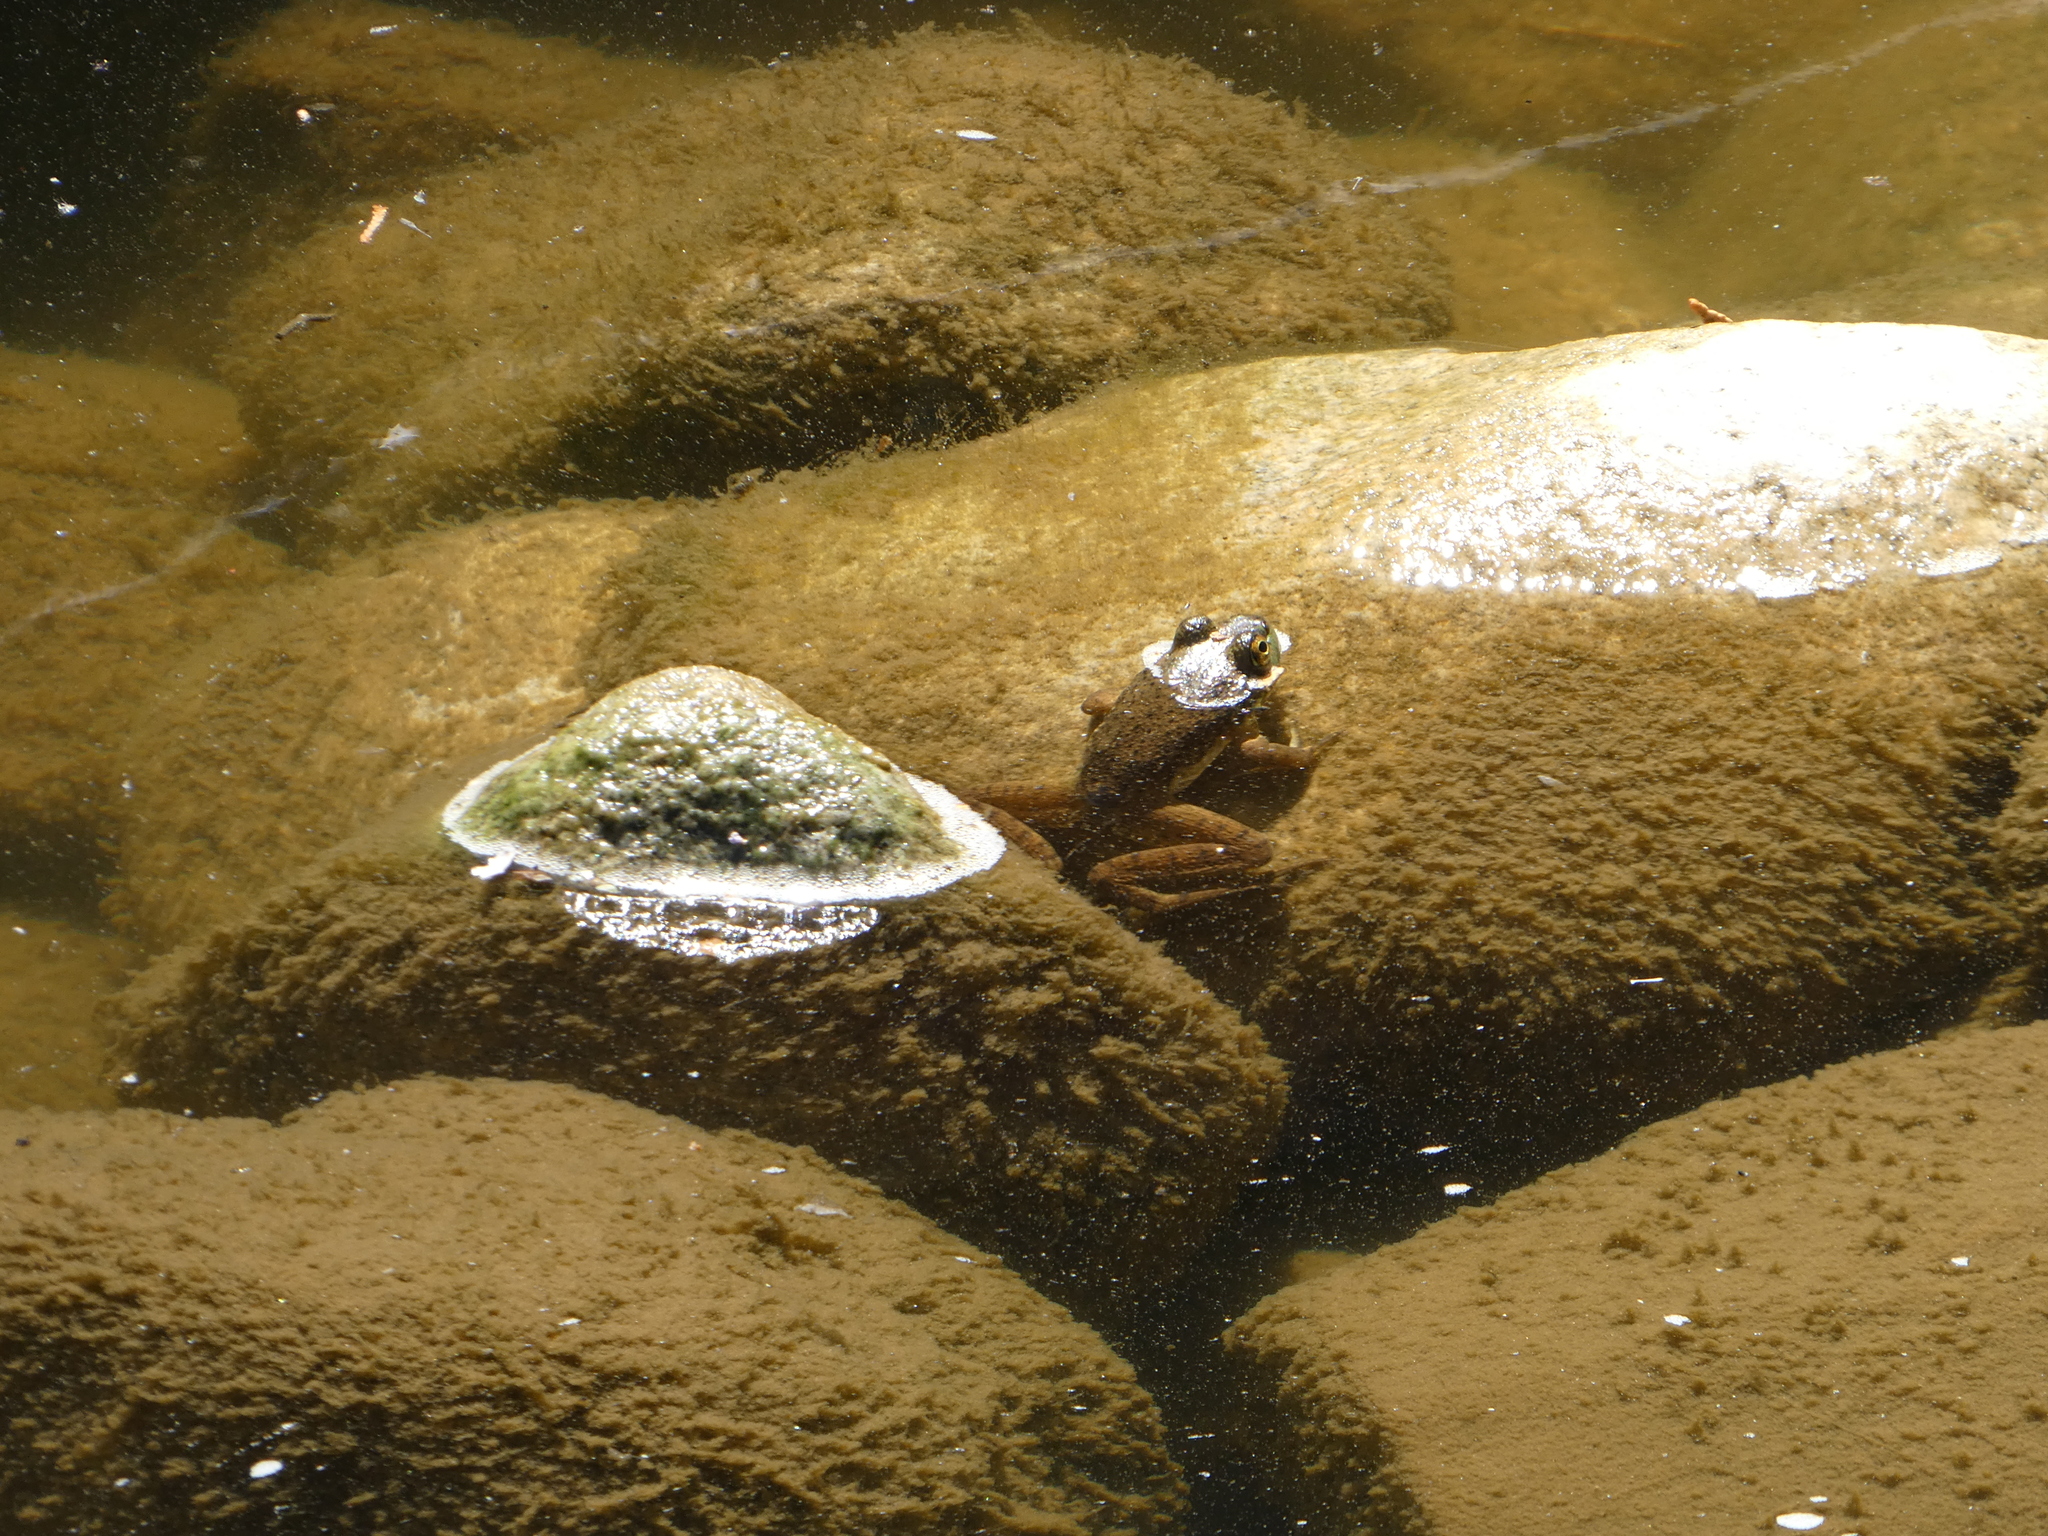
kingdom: Animalia
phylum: Chordata
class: Amphibia
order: Anura
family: Ranidae
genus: Lithobates
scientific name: Lithobates catesbeianus
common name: American bullfrog
